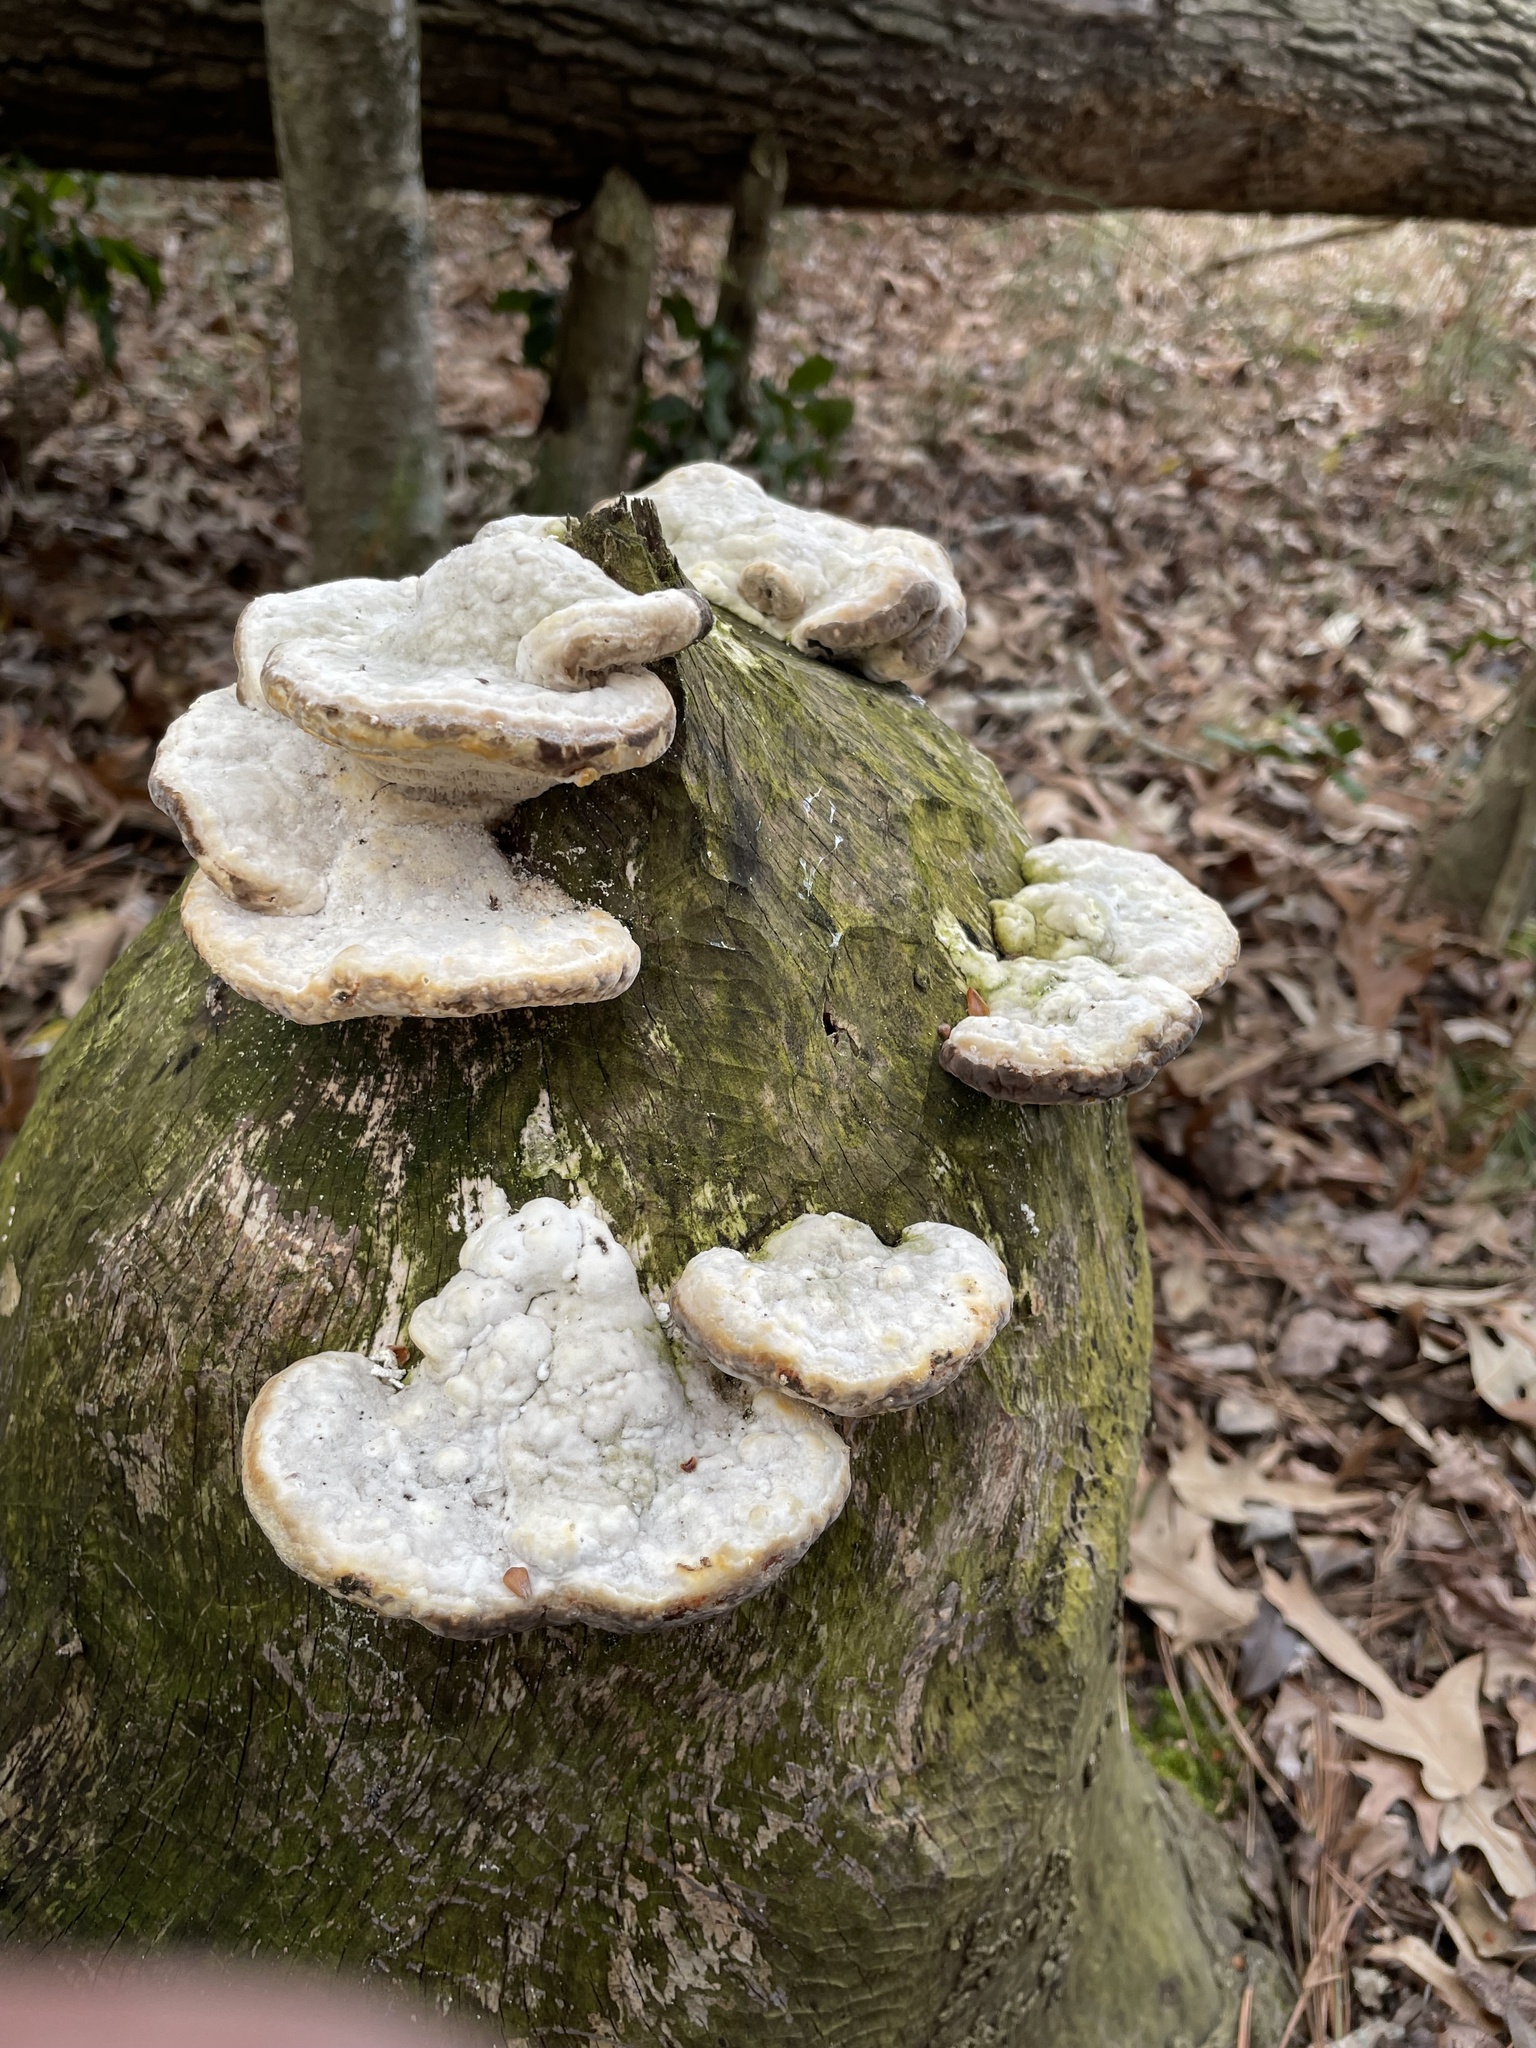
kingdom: Fungi
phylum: Basidiomycota
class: Agaricomycetes
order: Polyporales
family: Polyporaceae
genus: Trametes
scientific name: Trametes gibbosa
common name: Lumpy bracket
